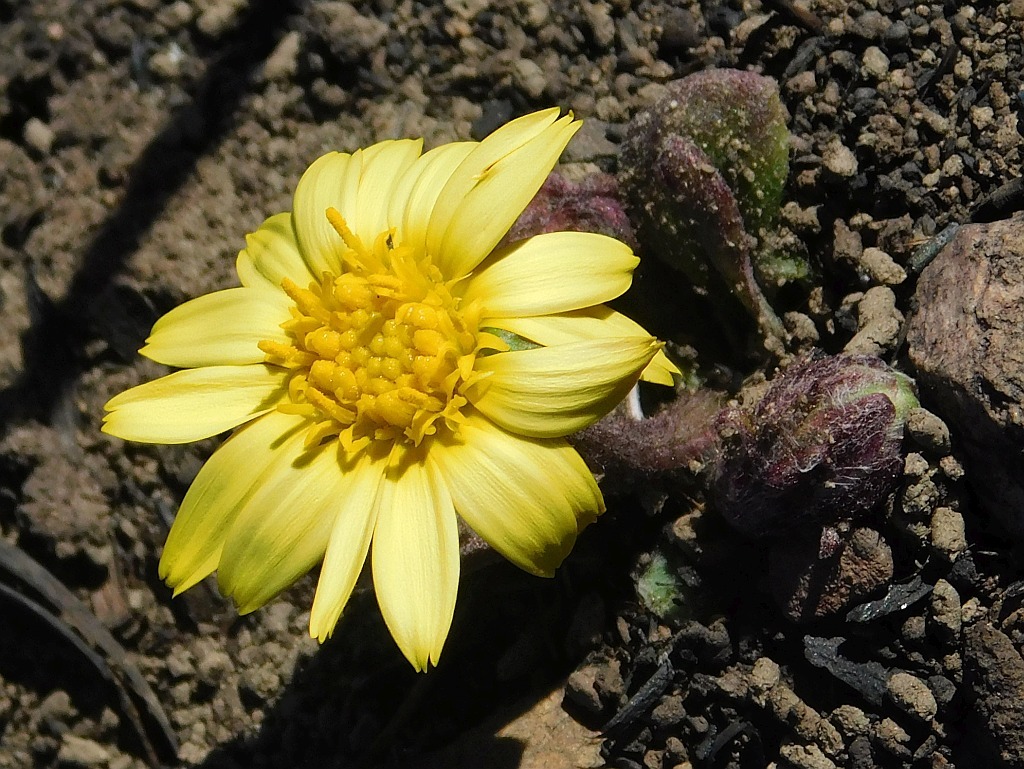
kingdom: Plantae
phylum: Tracheophyta
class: Magnoliopsida
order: Asterales
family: Asteraceae
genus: Haplocarpha
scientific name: Haplocarpha lanata
